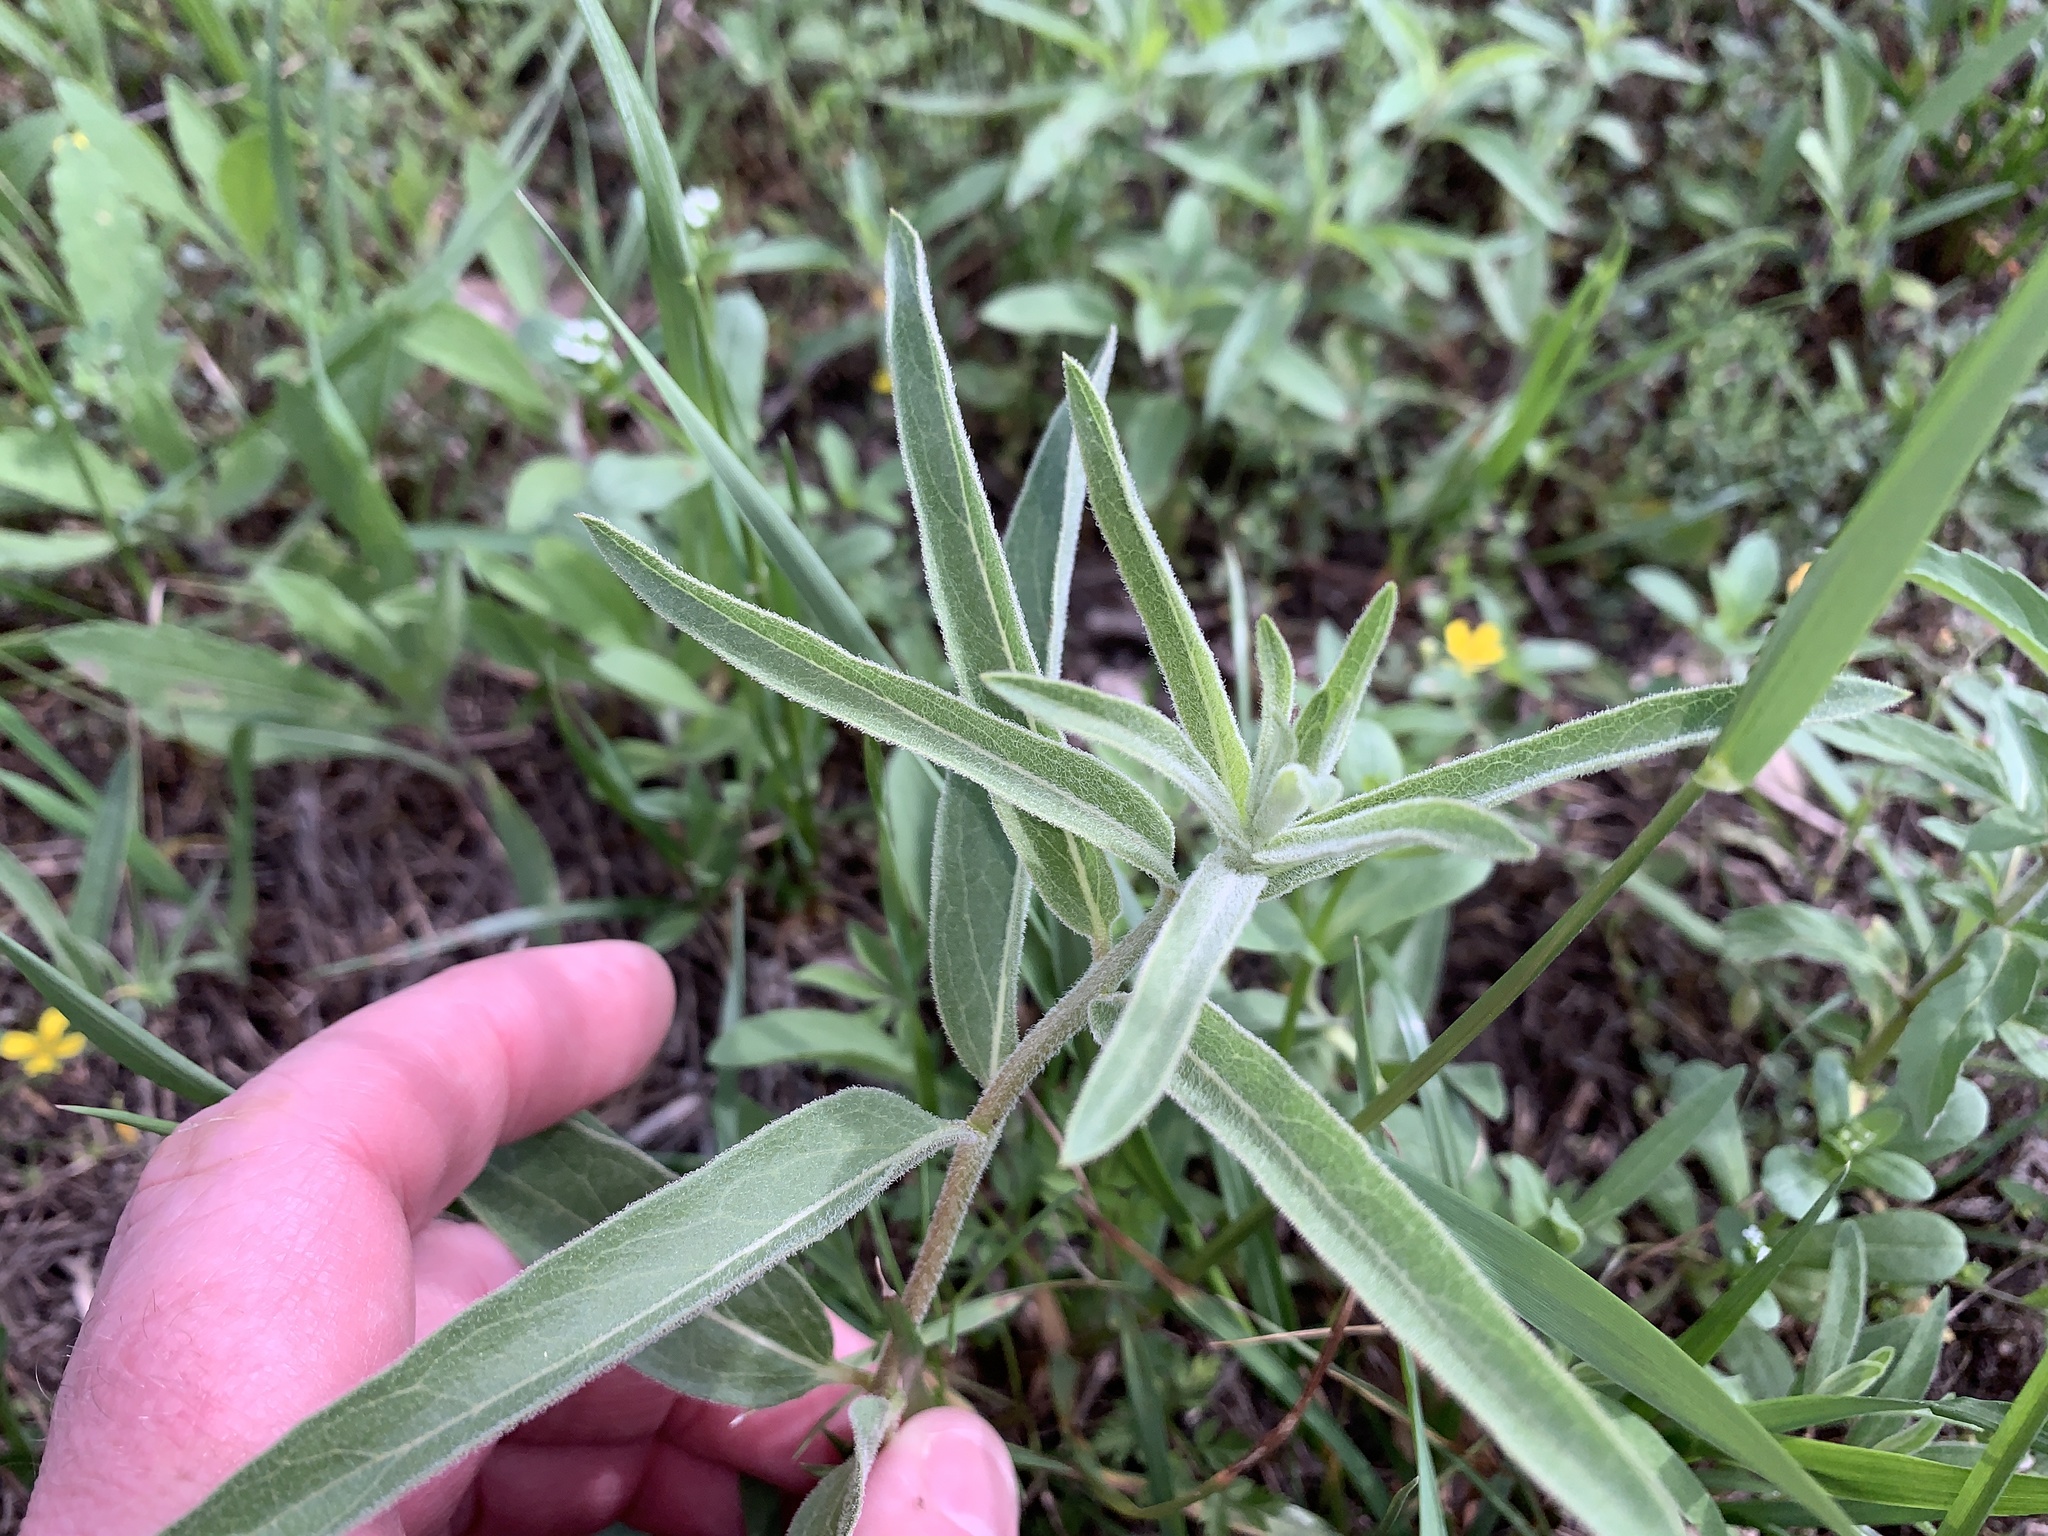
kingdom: Plantae
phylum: Tracheophyta
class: Magnoliopsida
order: Gentianales
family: Apocynaceae
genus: Asclepias
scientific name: Asclepias asperula
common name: Antelope horns
